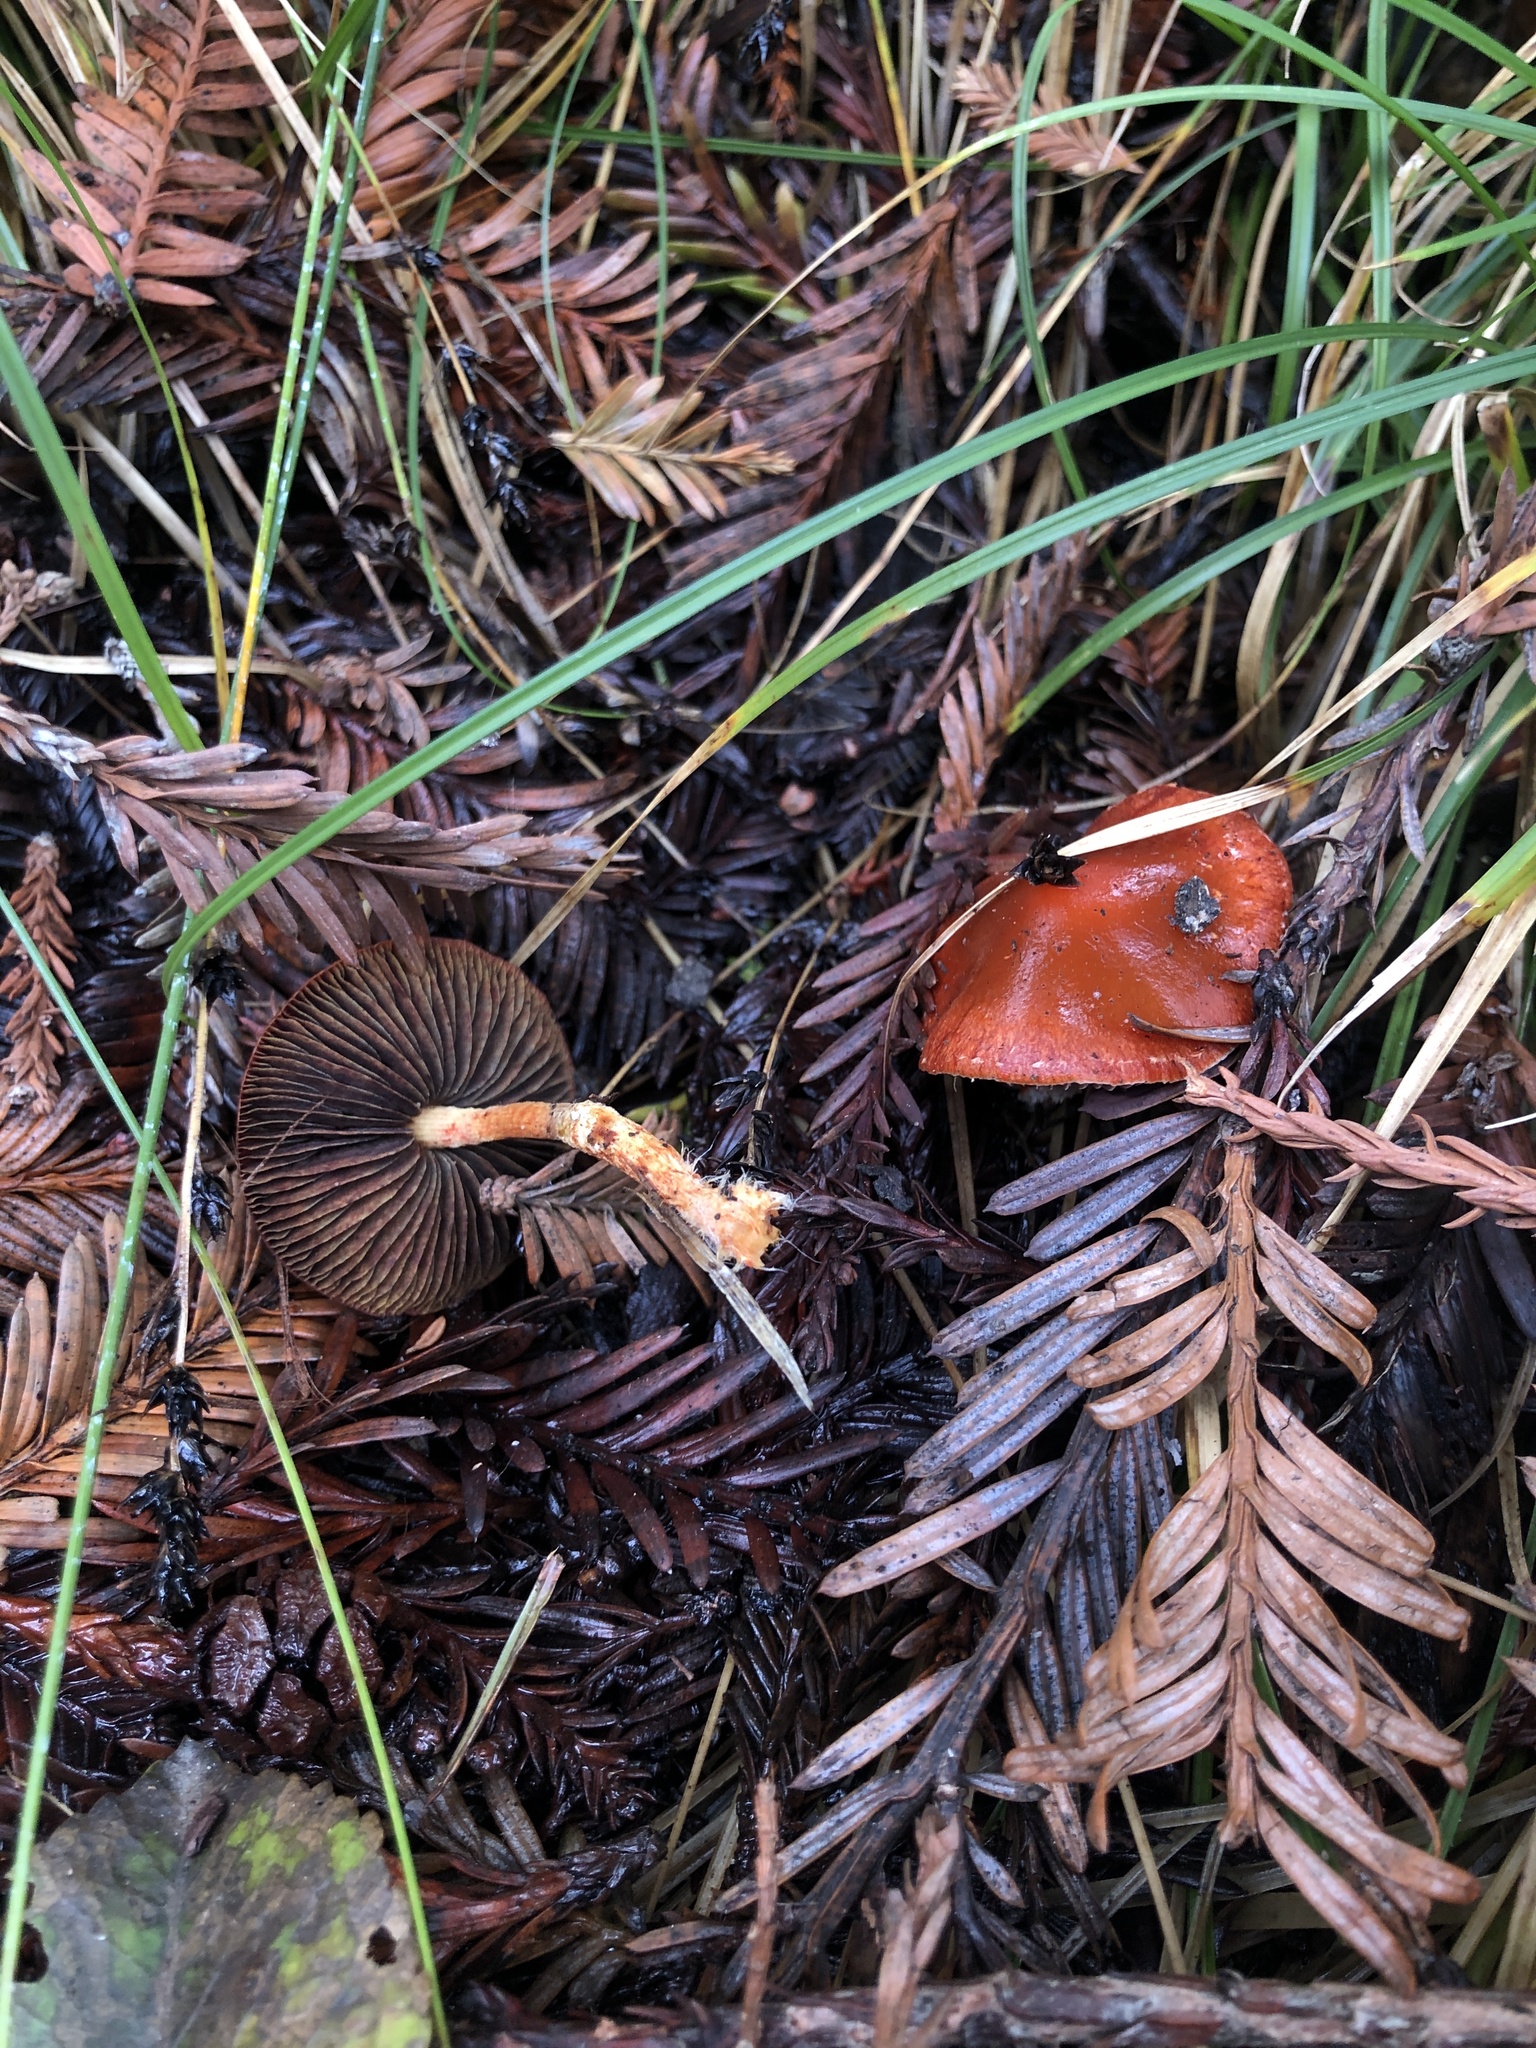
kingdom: Fungi
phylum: Basidiomycota
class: Agaricomycetes
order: Agaricales
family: Strophariaceae
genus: Leratiomyces
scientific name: Leratiomyces ceres
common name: Redlead roundhead
